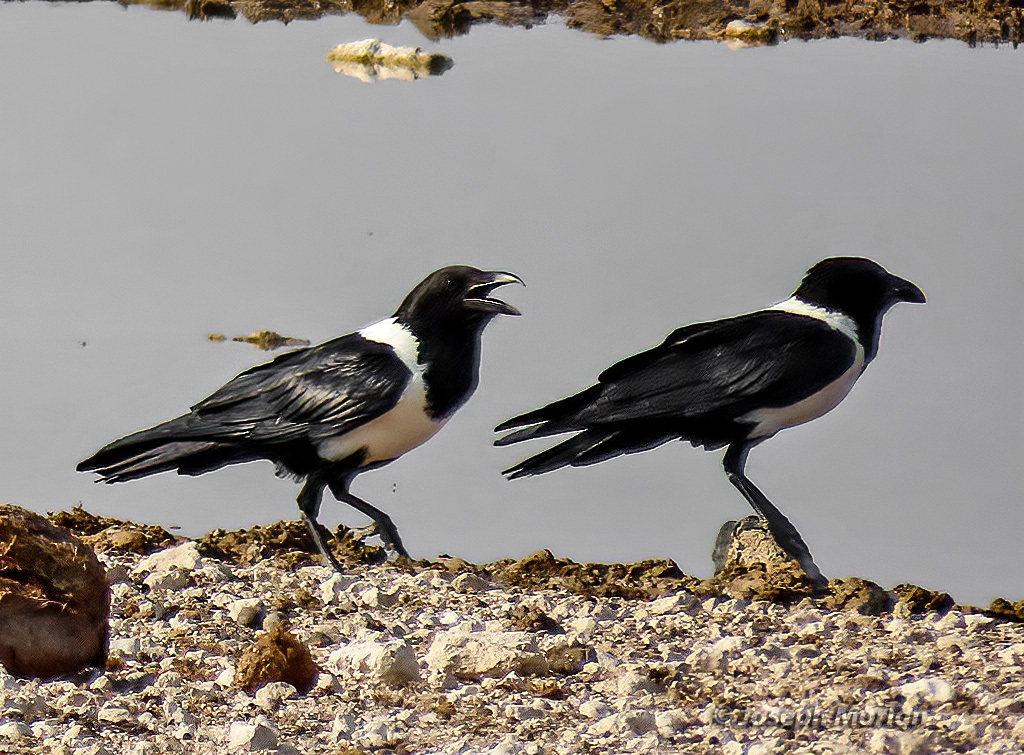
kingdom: Animalia
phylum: Chordata
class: Aves
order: Passeriformes
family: Corvidae
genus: Corvus
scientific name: Corvus albus
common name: Pied crow
